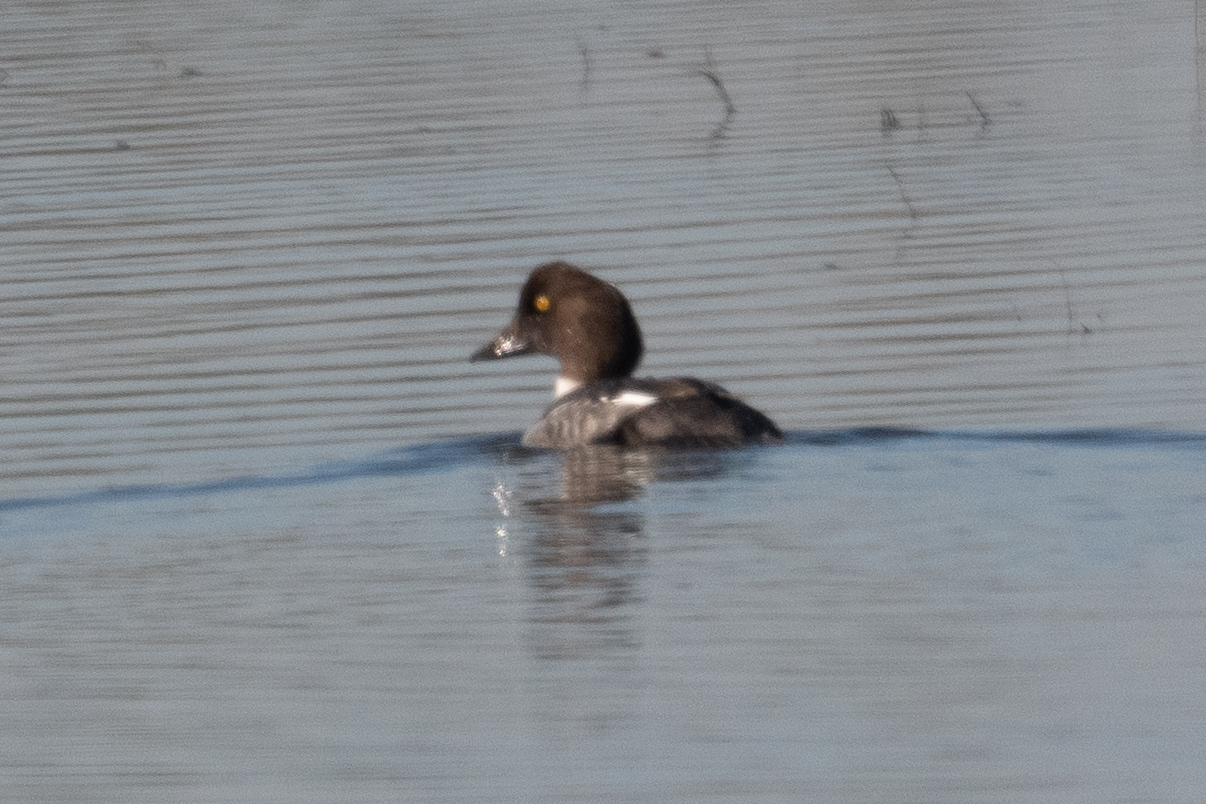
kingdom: Animalia
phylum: Chordata
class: Aves
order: Anseriformes
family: Anatidae
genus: Bucephala
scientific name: Bucephala clangula
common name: Common goldeneye
